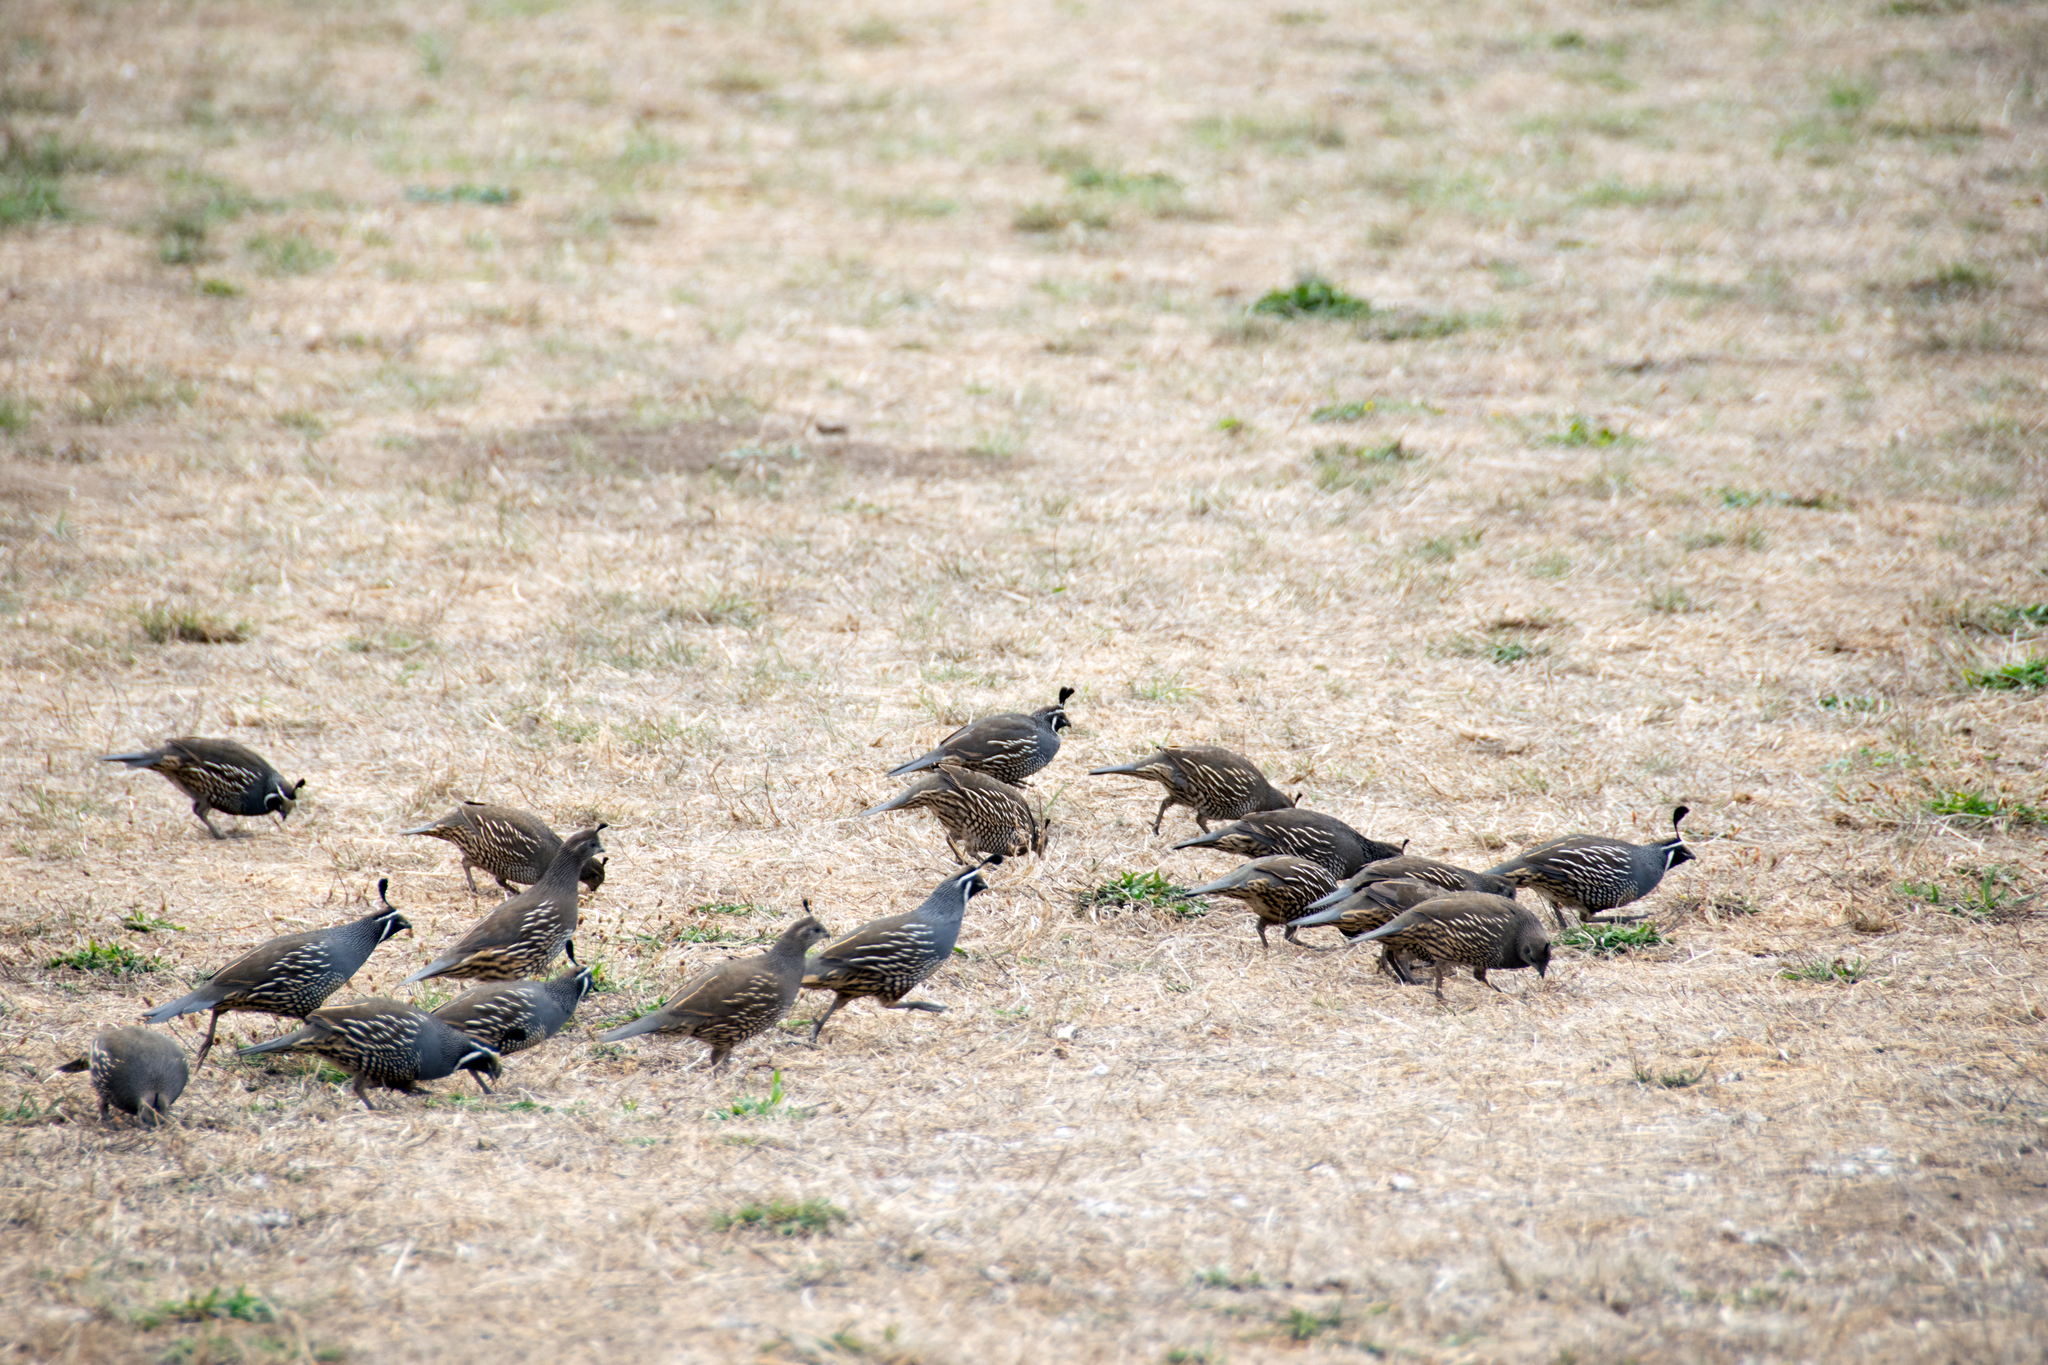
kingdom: Animalia
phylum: Chordata
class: Aves
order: Galliformes
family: Odontophoridae
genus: Callipepla
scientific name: Callipepla californica
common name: California quail
